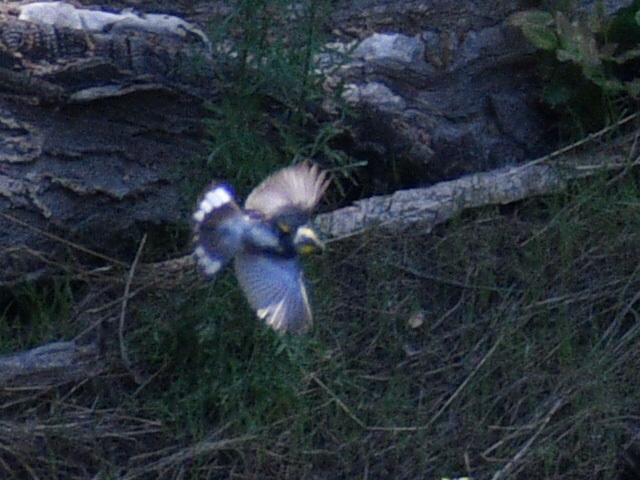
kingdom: Animalia
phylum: Chordata
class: Aves
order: Passeriformes
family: Parulidae
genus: Setophaga
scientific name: Setophaga auduboni
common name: Audubon's warbler
